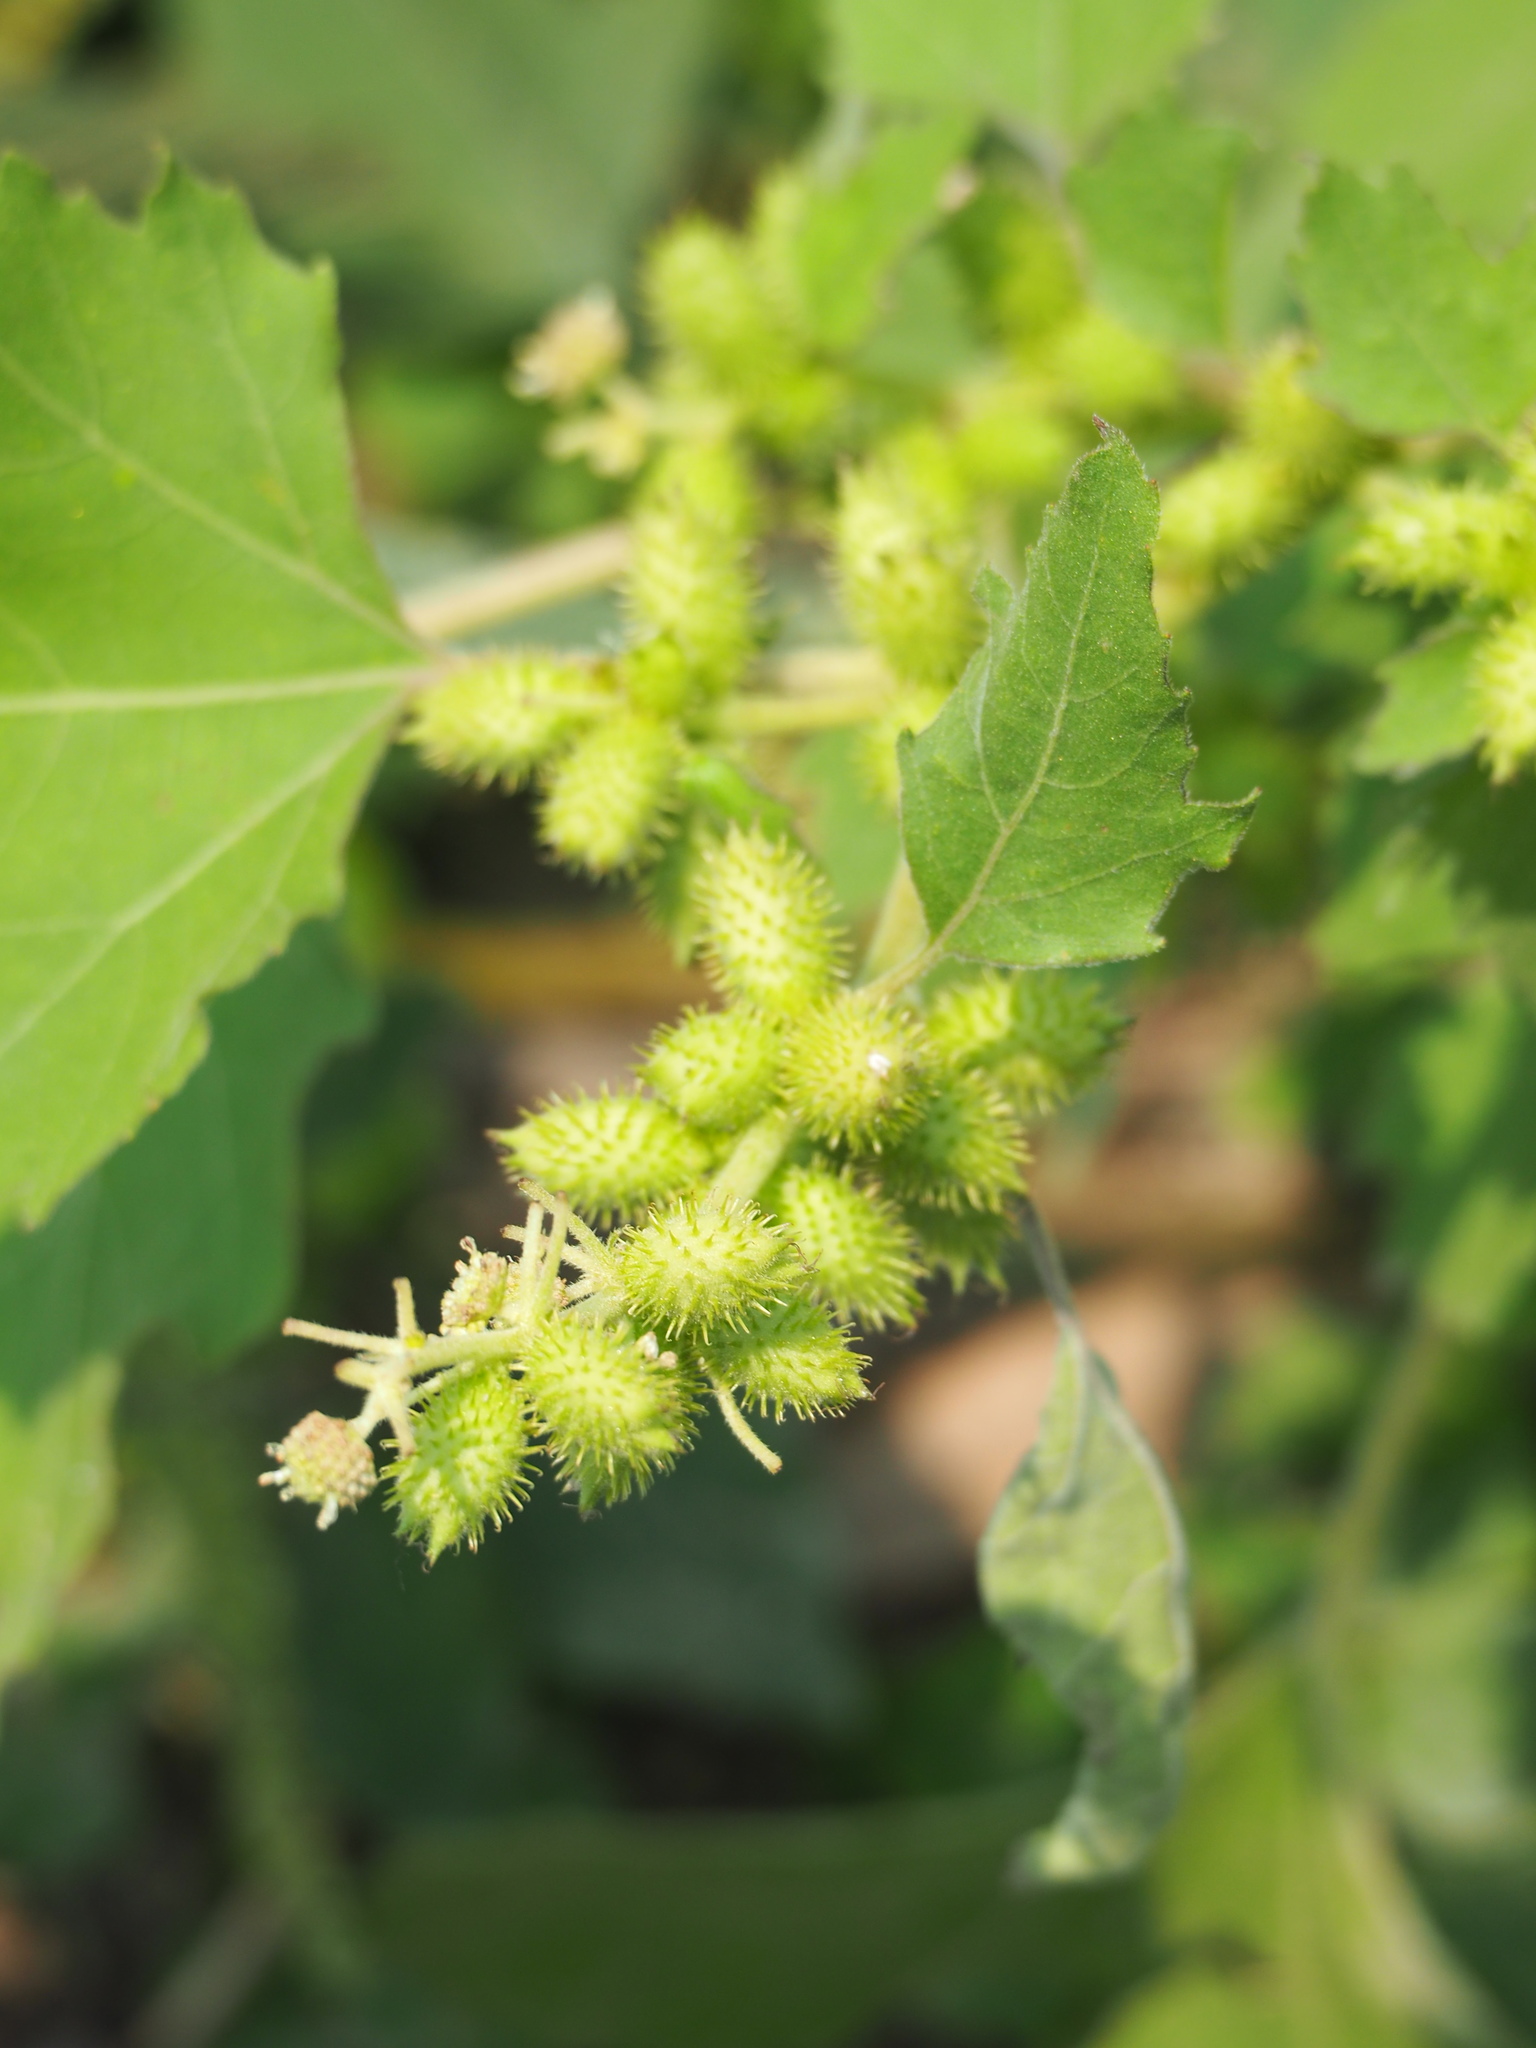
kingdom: Plantae
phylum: Tracheophyta
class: Magnoliopsida
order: Asterales
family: Asteraceae
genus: Xanthium
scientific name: Xanthium strumarium
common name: Rough cocklebur
